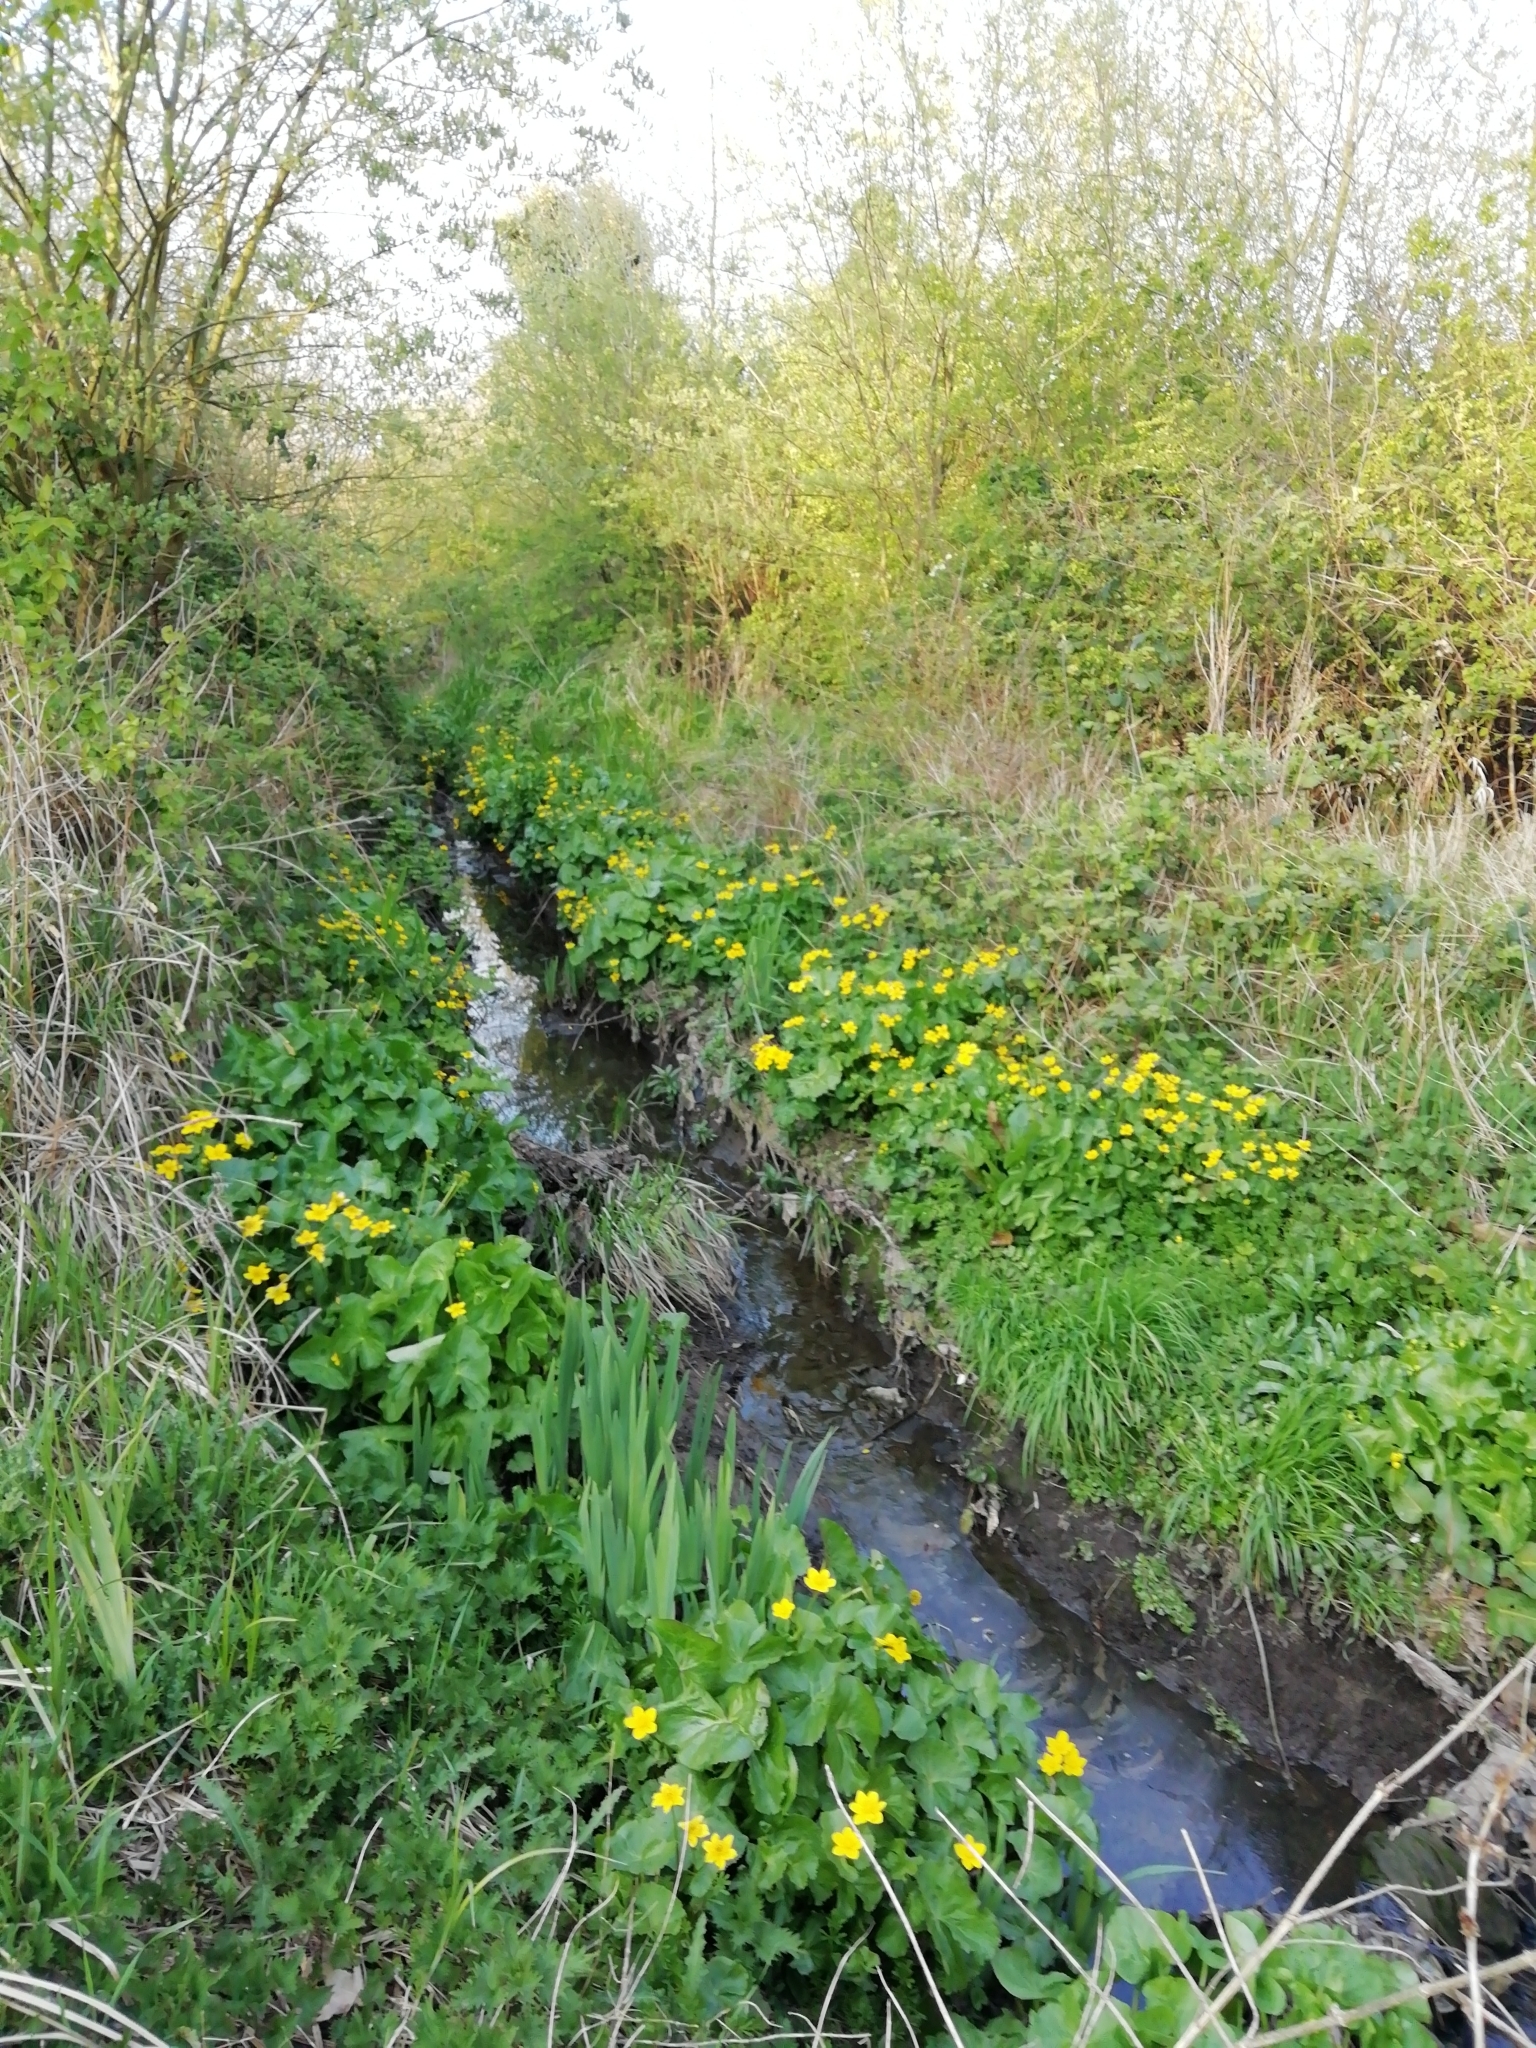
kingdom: Plantae
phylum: Tracheophyta
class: Magnoliopsida
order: Ranunculales
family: Ranunculaceae
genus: Caltha
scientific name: Caltha palustris
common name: Marsh marigold
